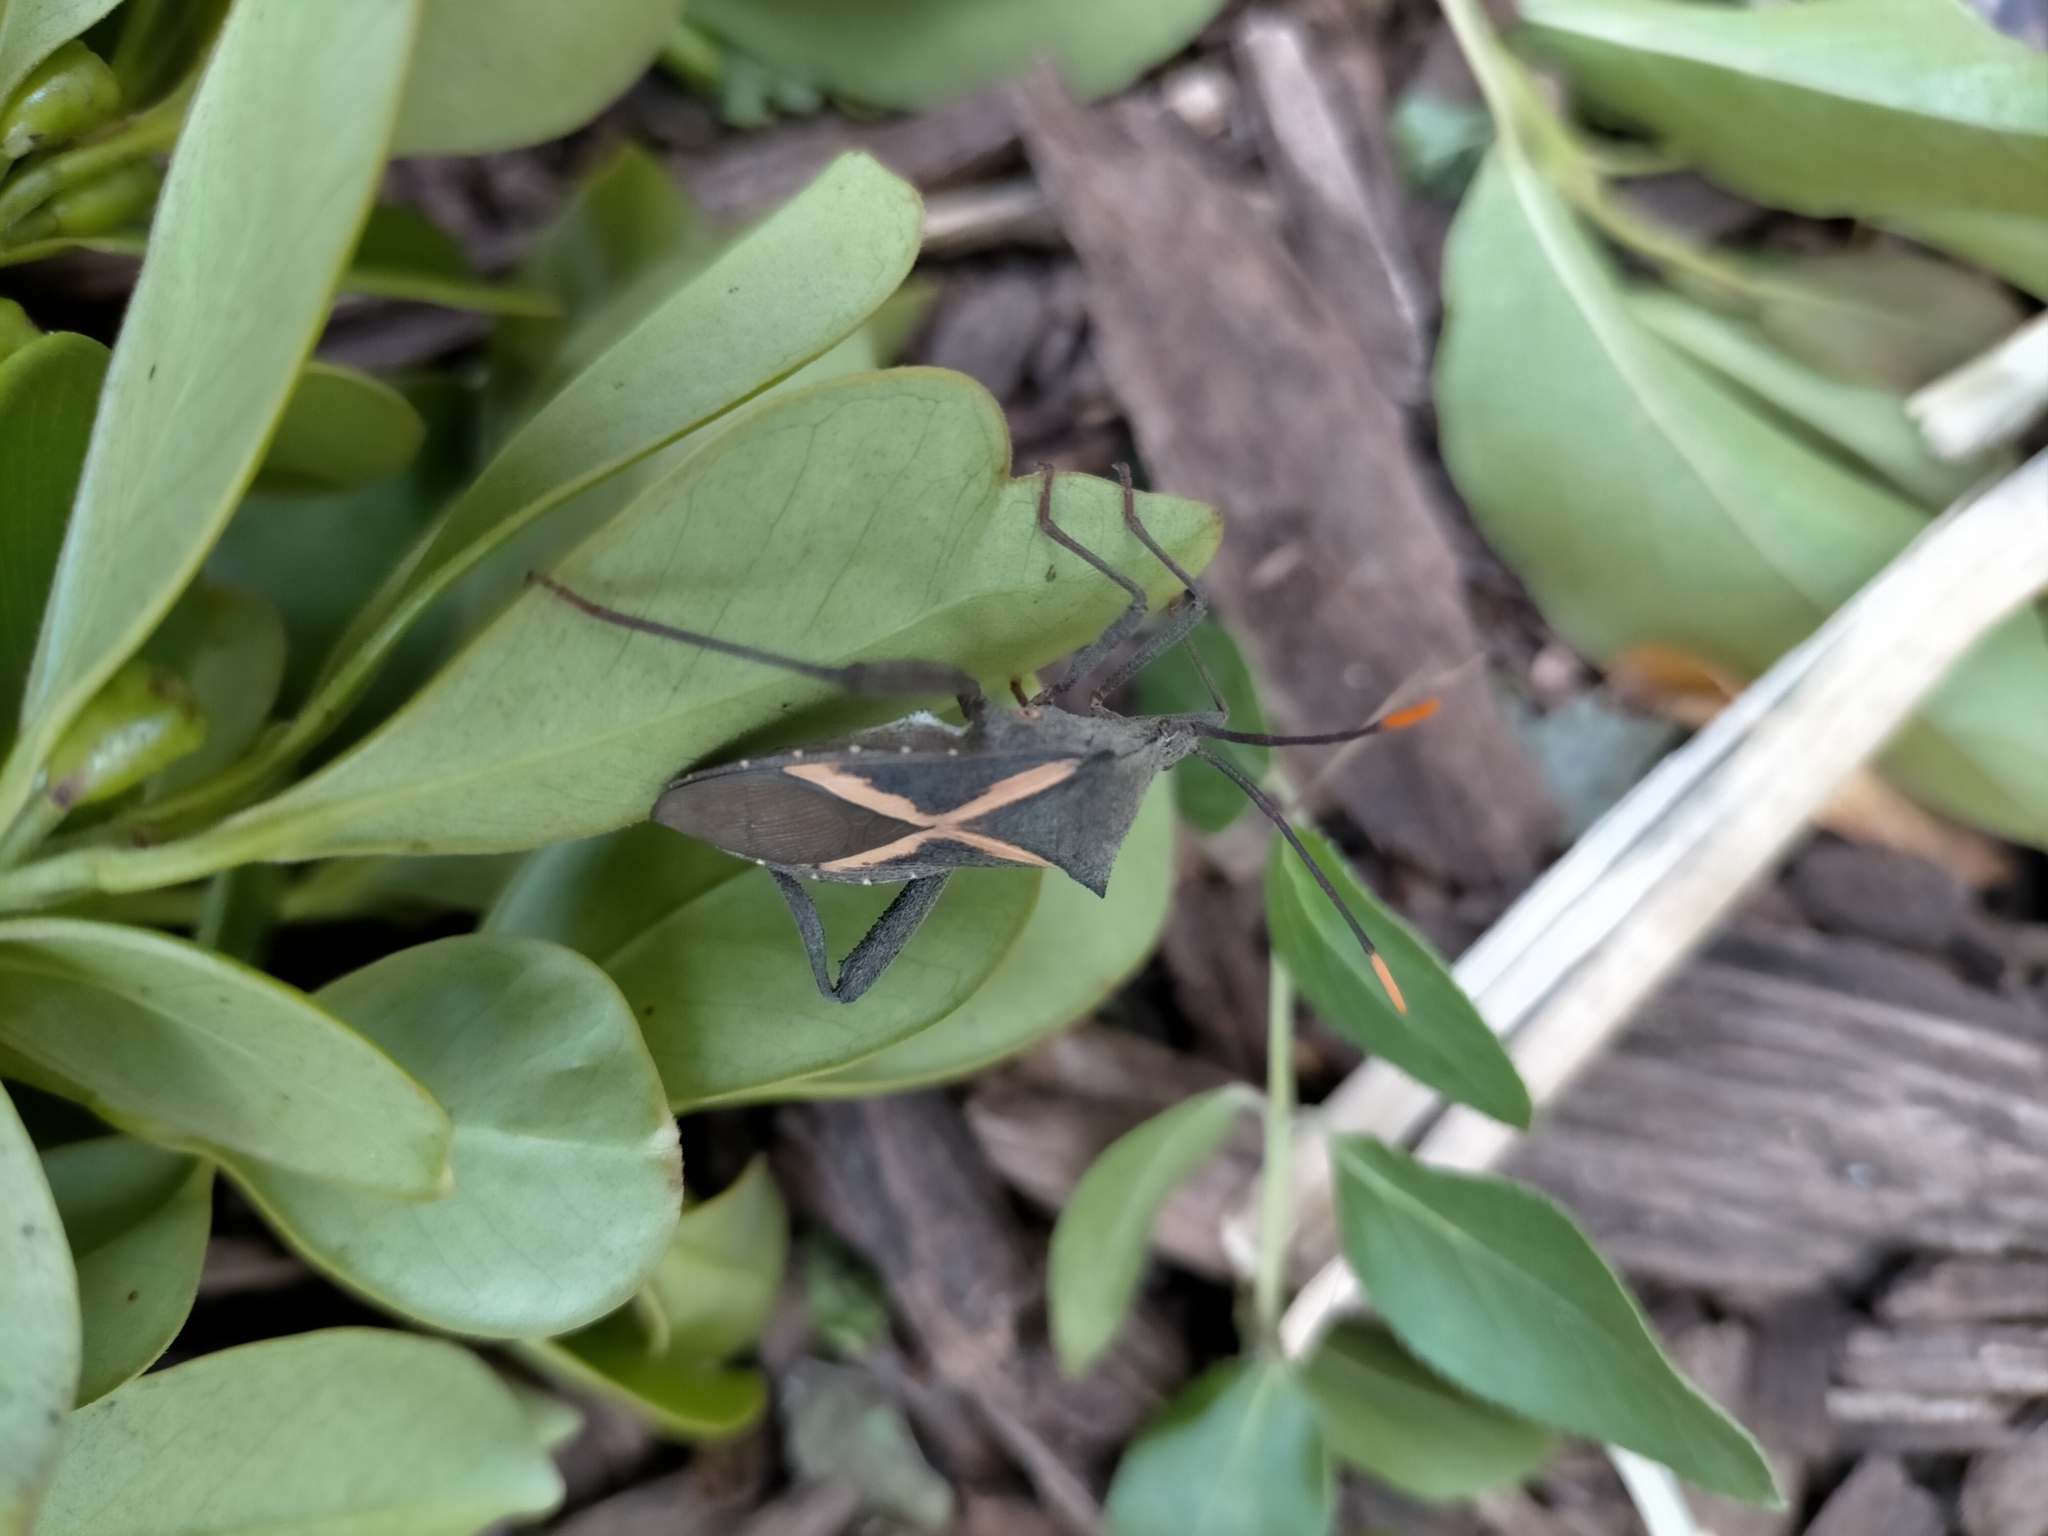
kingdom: Animalia
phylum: Arthropoda
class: Insecta
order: Hemiptera
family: Coreidae
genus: Mictis
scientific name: Mictis profana
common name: Crusader bug
